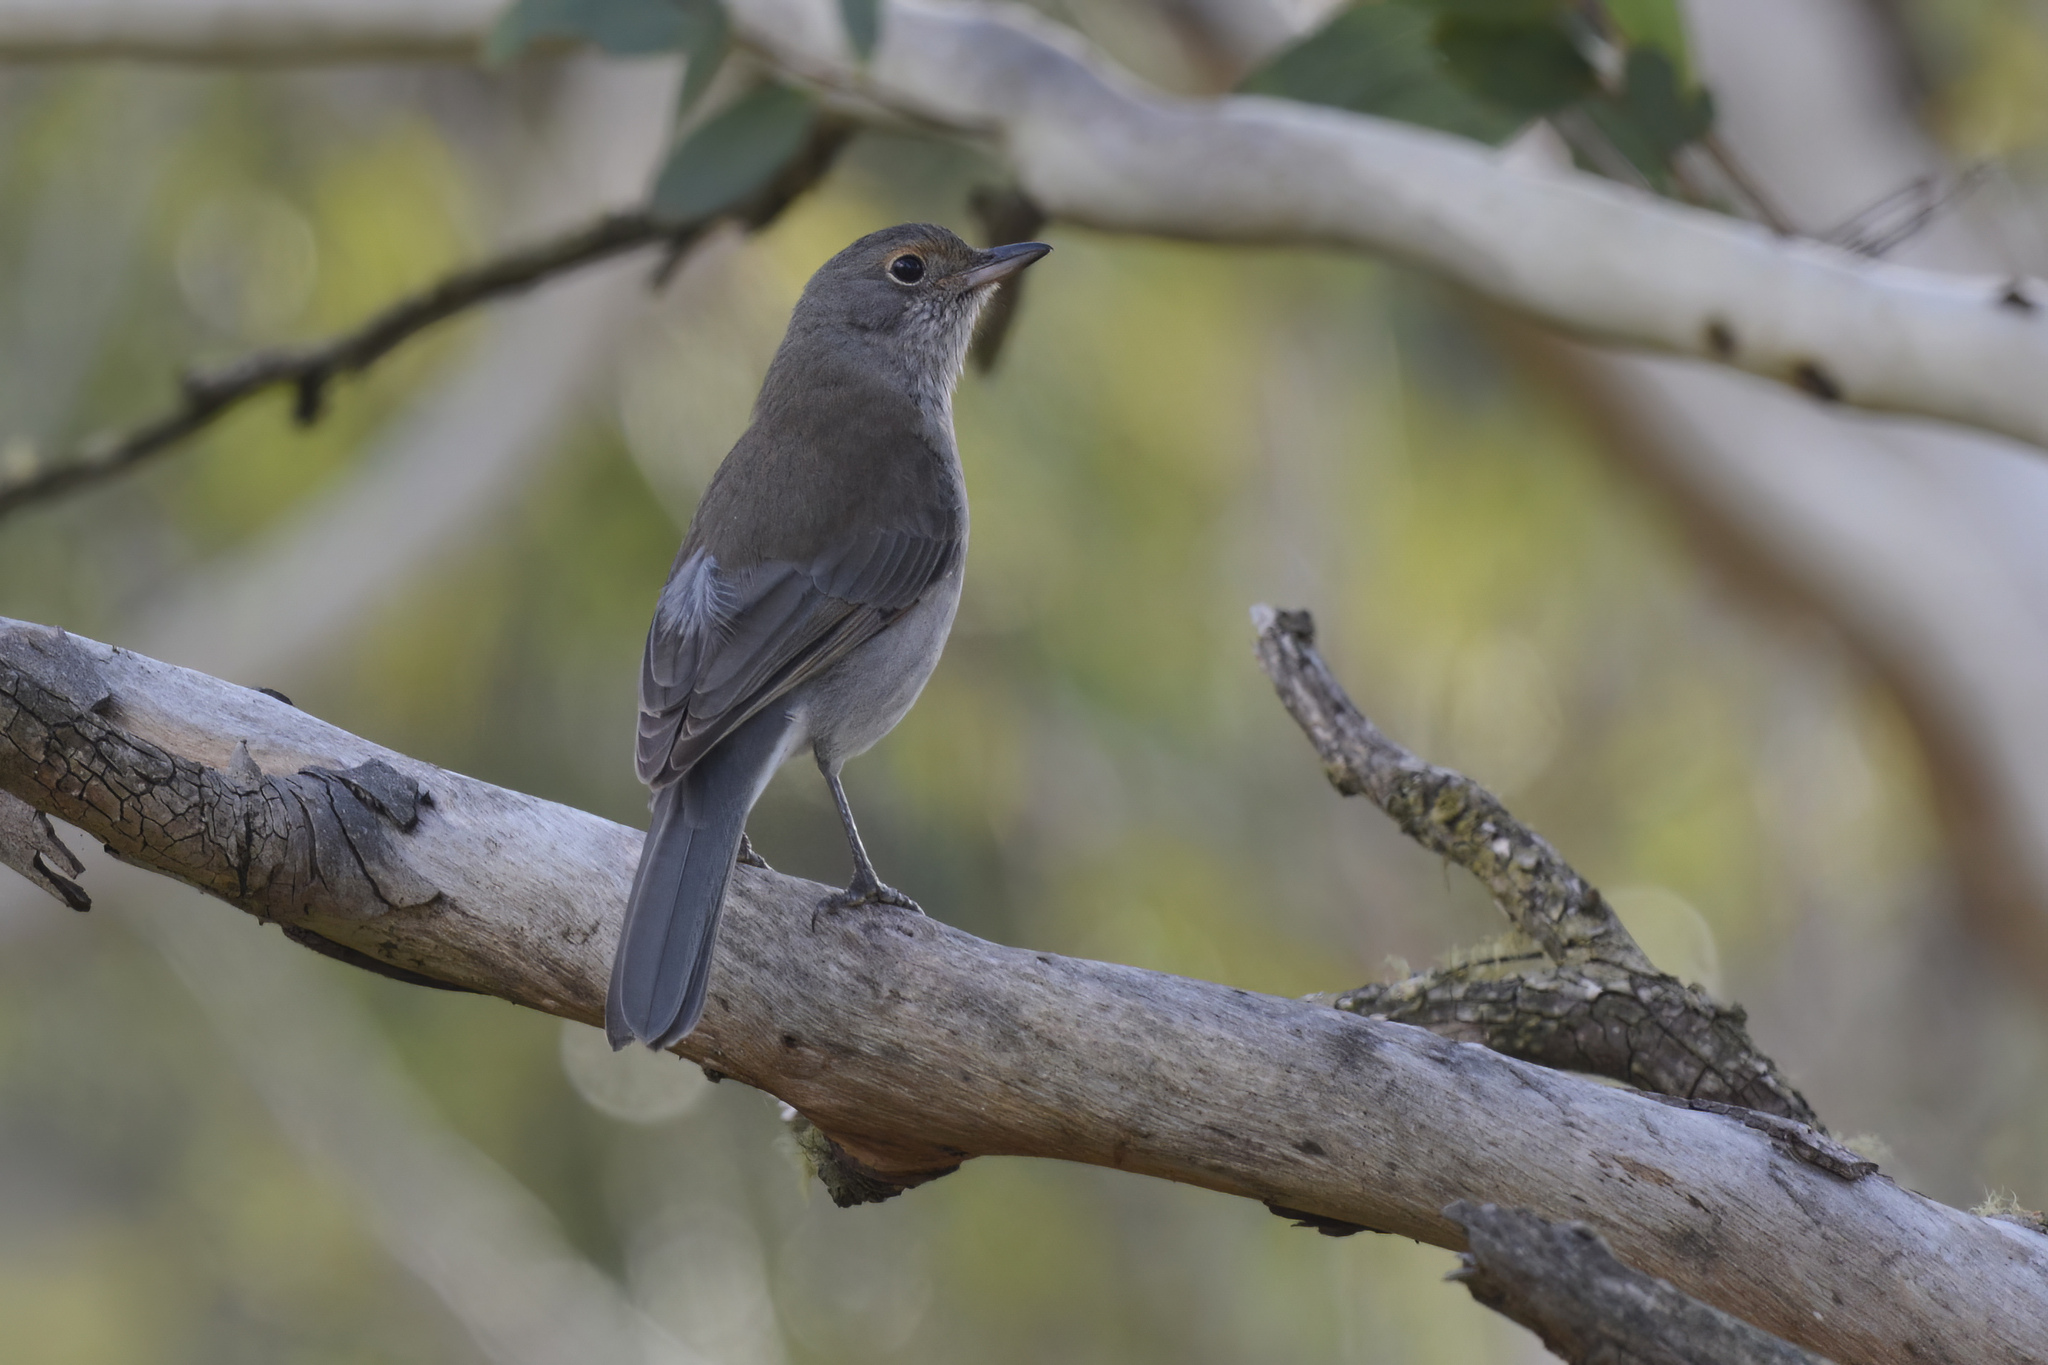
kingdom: Animalia
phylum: Chordata
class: Aves
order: Passeriformes
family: Pachycephalidae
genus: Colluricincla
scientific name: Colluricincla harmonica
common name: Grey shrikethrush
